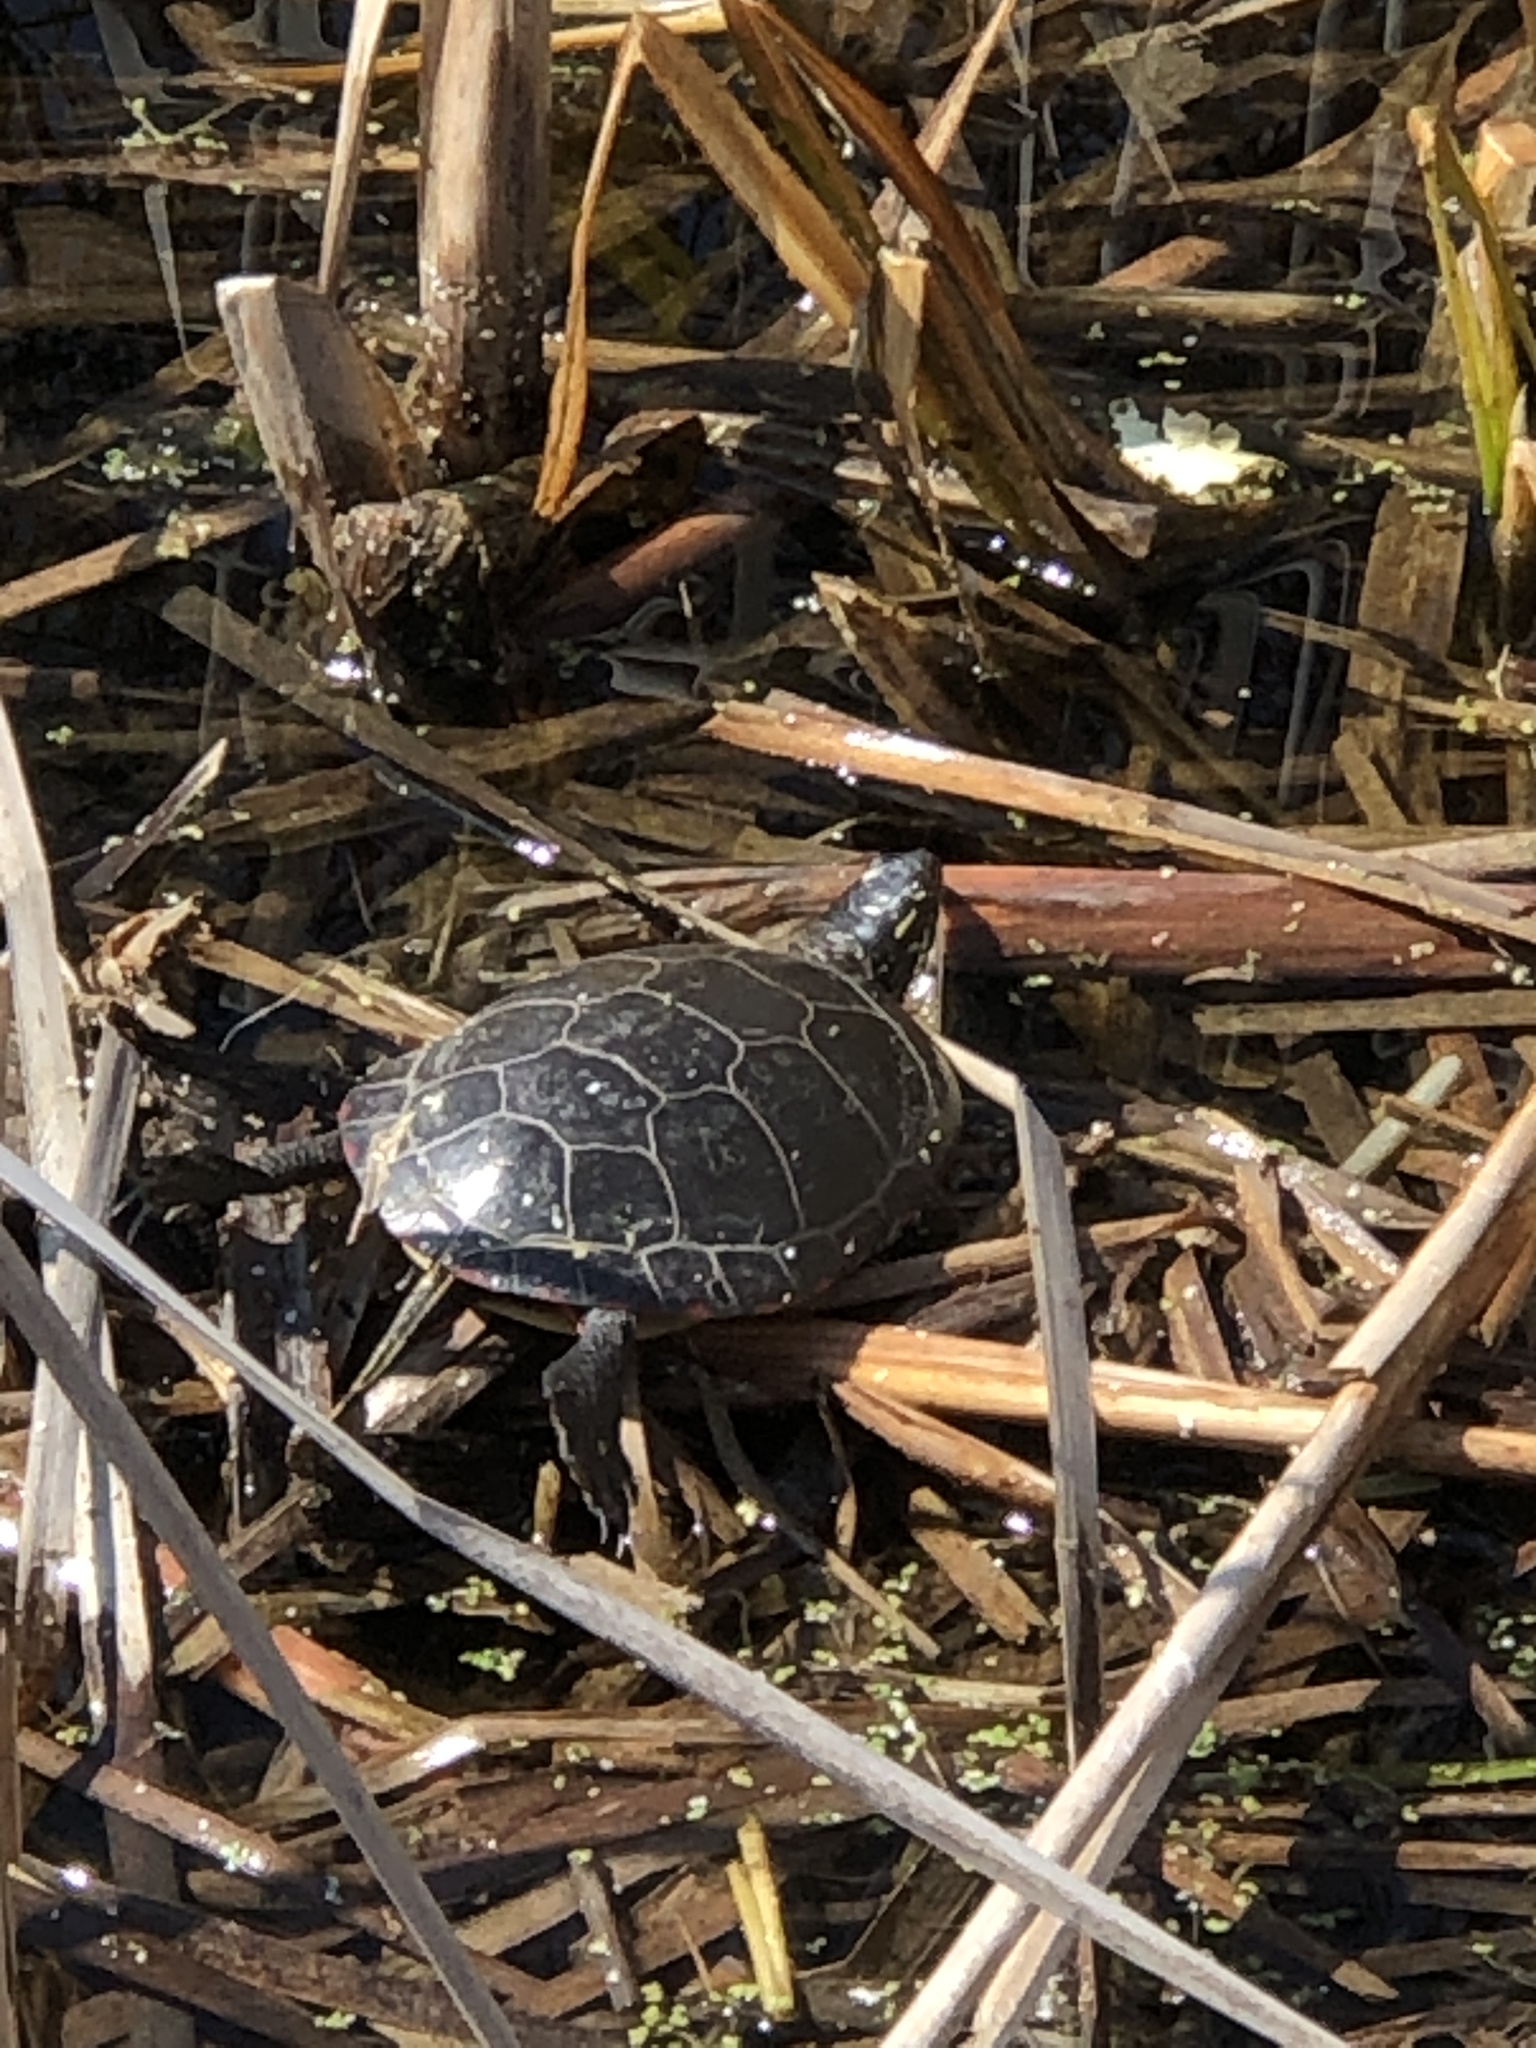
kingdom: Animalia
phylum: Chordata
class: Testudines
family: Emydidae
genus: Chrysemys
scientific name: Chrysemys picta
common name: Painted turtle
